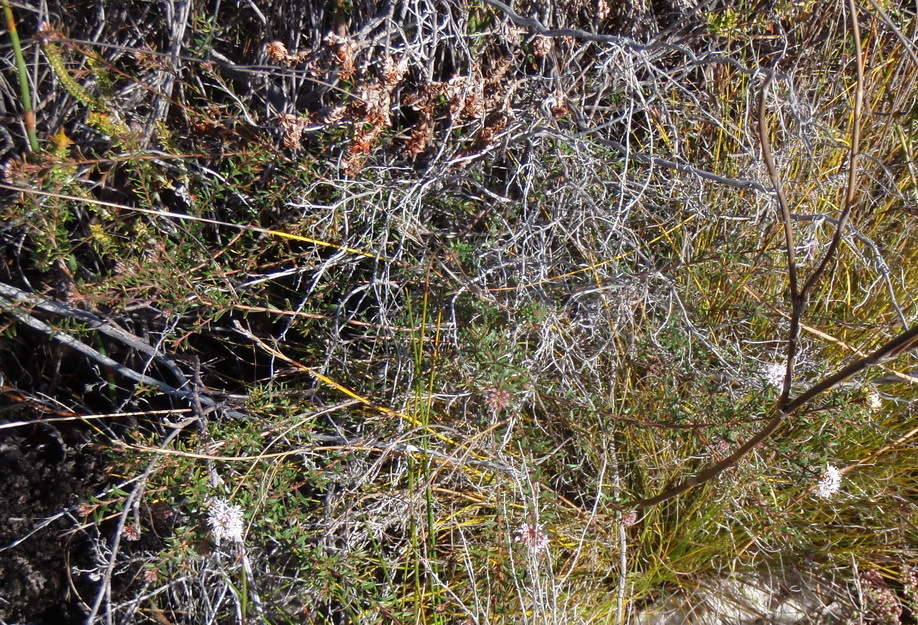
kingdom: Plantae
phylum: Tracheophyta
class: Magnoliopsida
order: Sapindales
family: Rutaceae
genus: Agathosma
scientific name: Agathosma foetidissima
